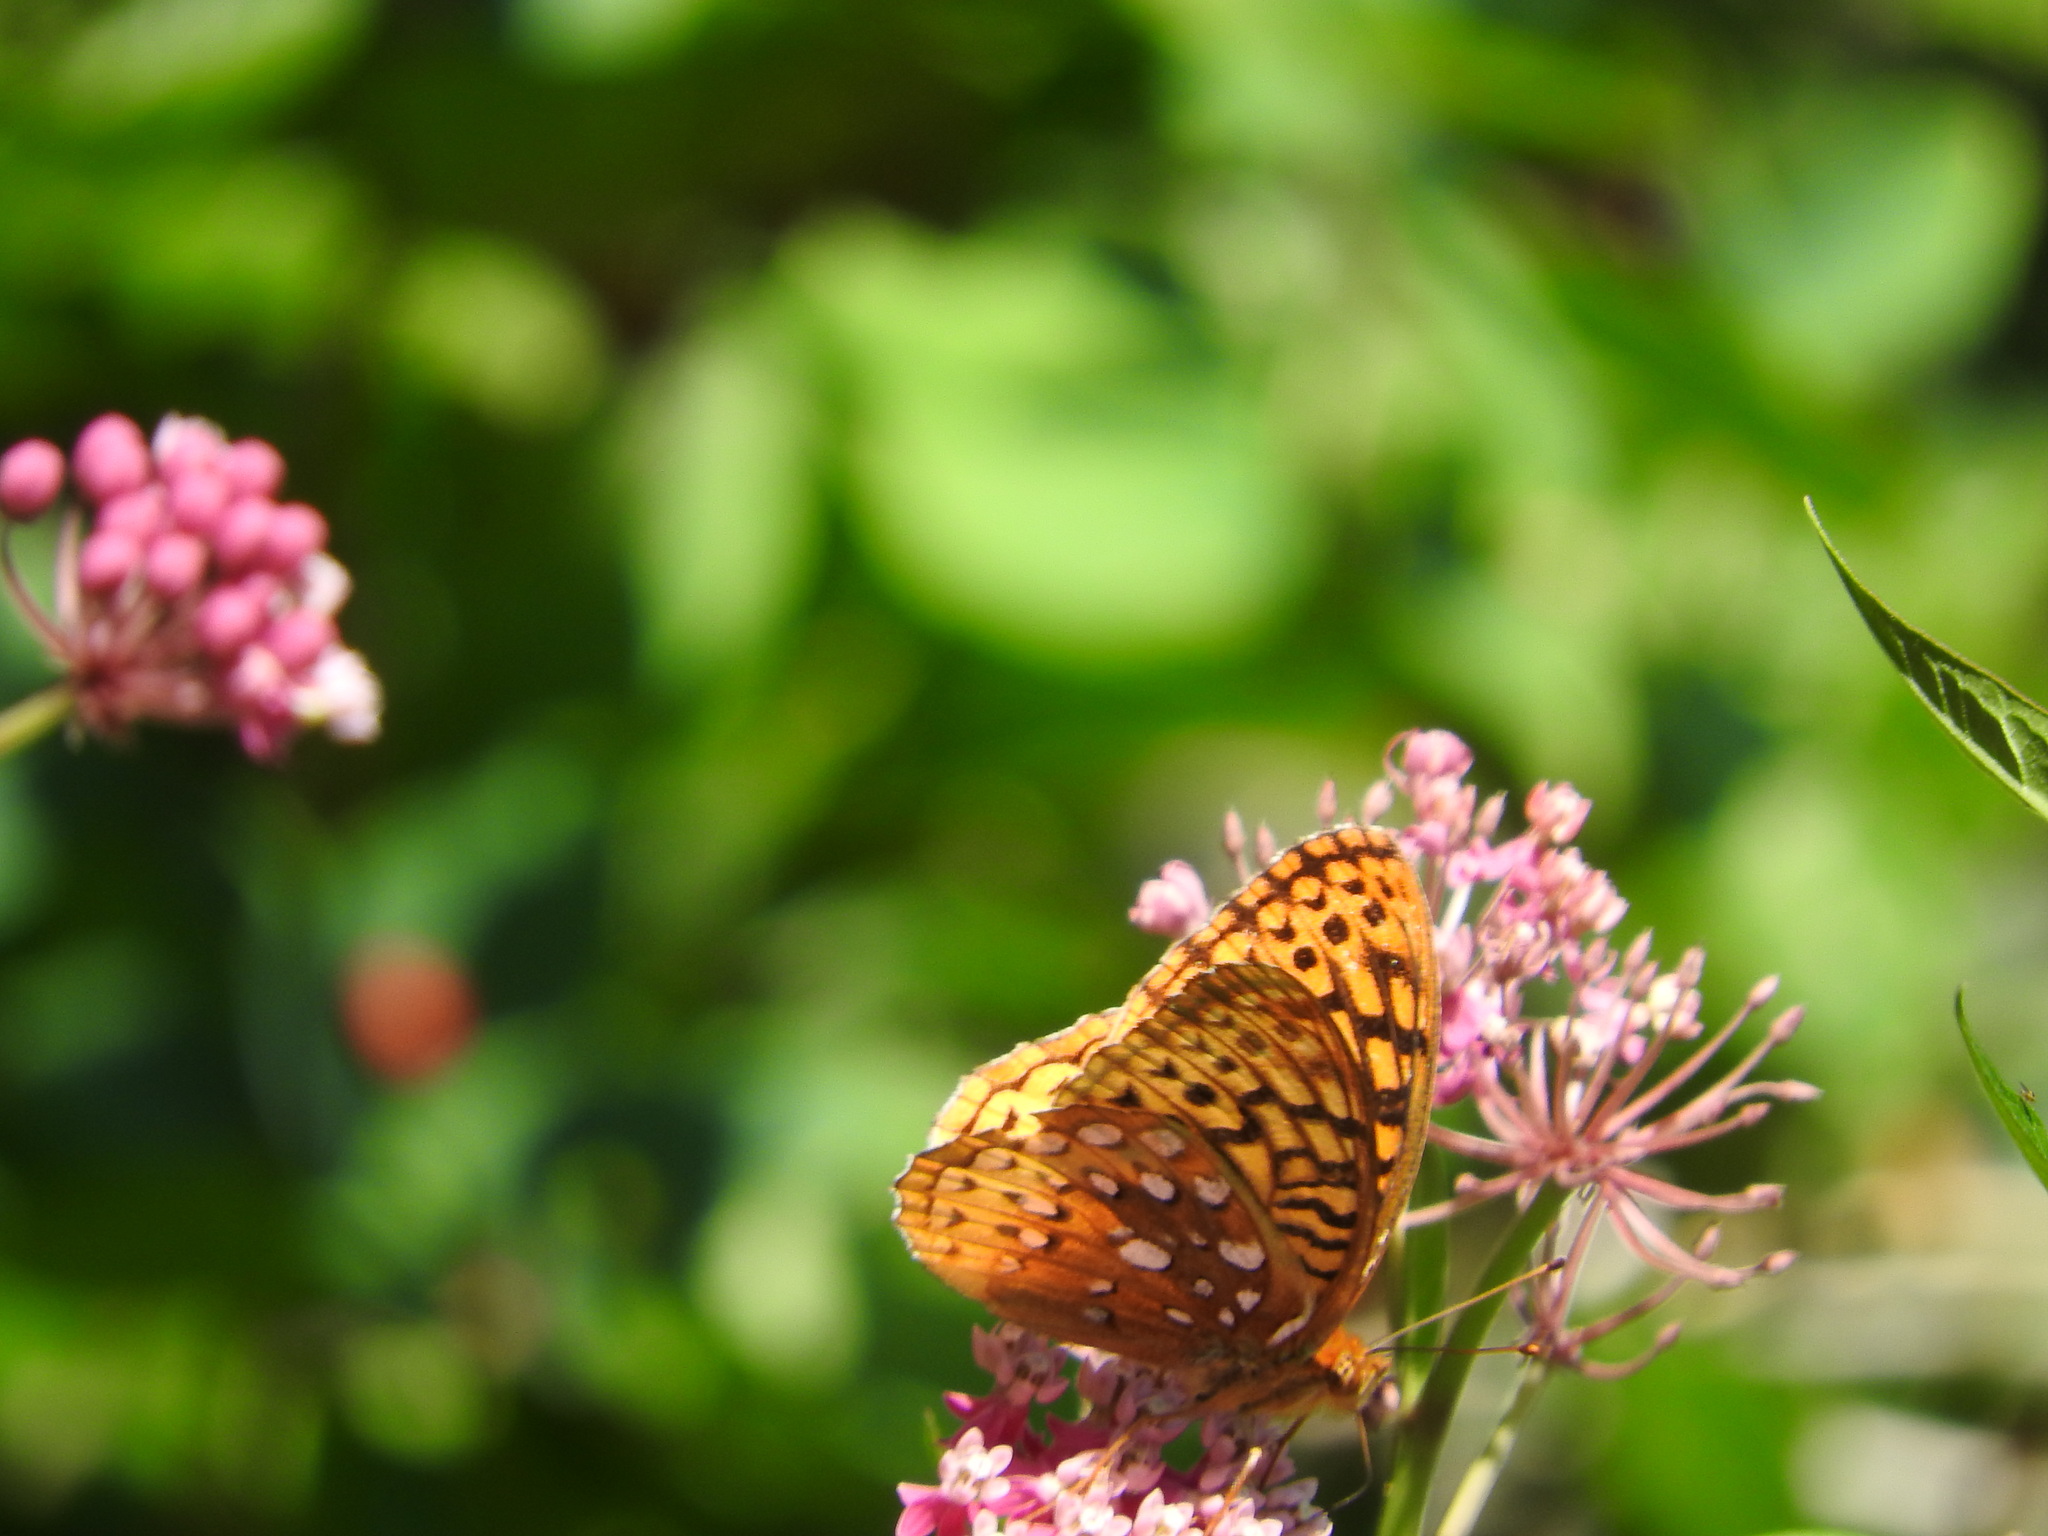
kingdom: Animalia
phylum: Arthropoda
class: Insecta
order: Lepidoptera
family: Nymphalidae
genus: Speyeria
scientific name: Speyeria cybele
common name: Great spangled fritillary
